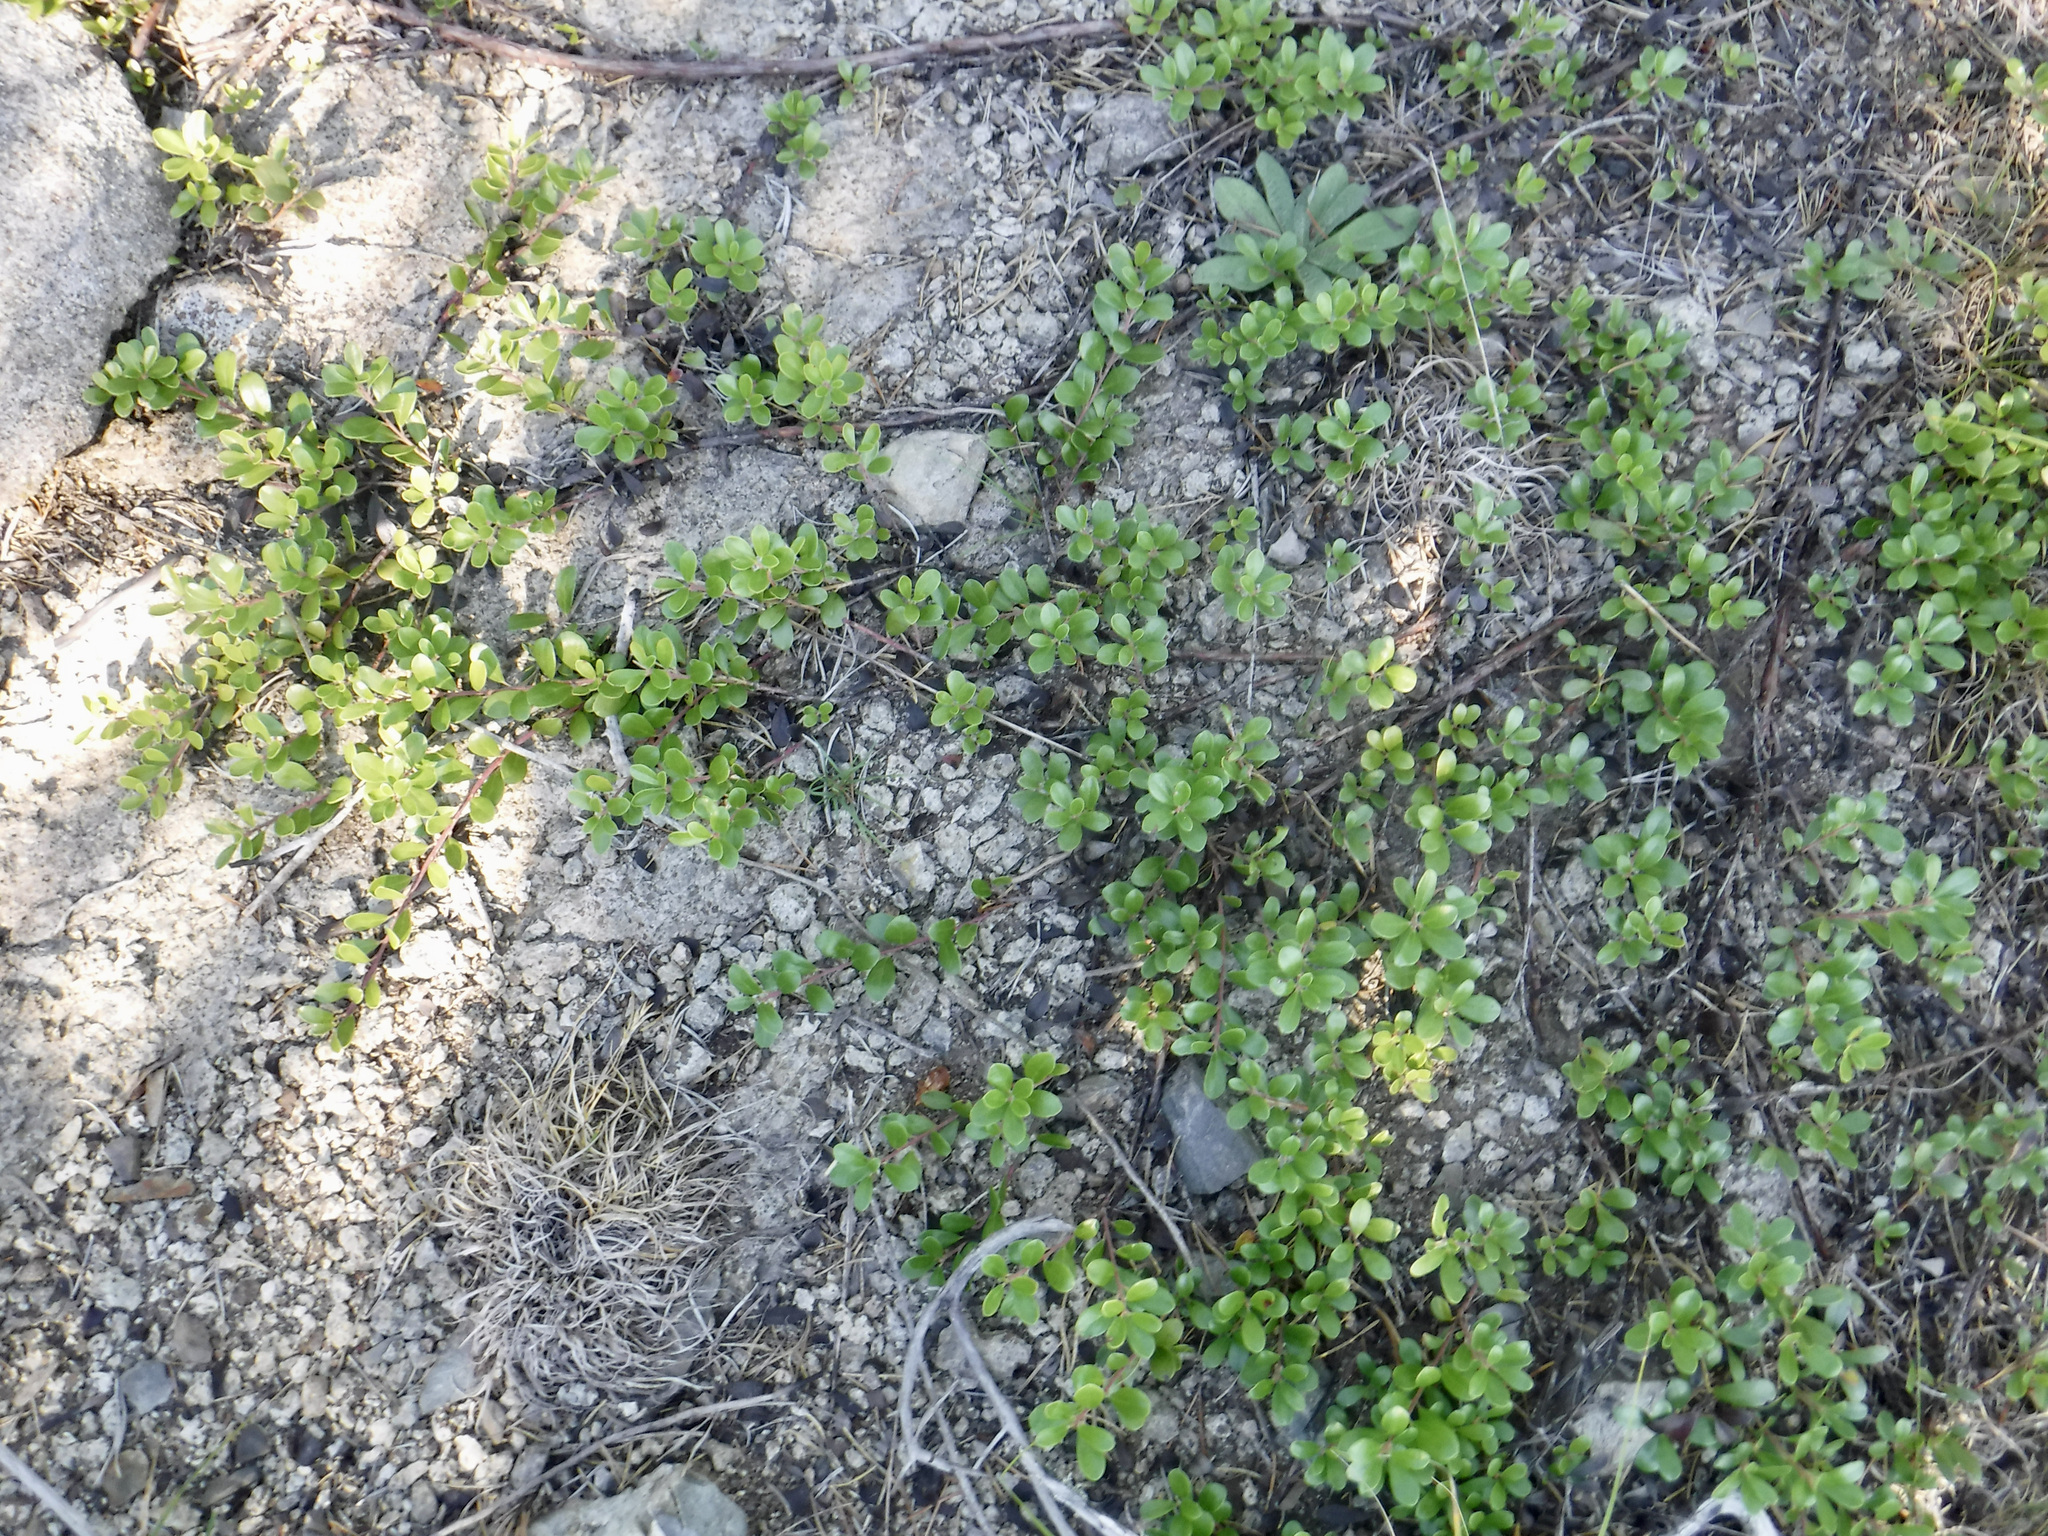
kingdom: Plantae
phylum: Tracheophyta
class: Magnoliopsida
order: Ericales
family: Ericaceae
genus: Arctostaphylos
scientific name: Arctostaphylos uva-ursi
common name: Bearberry
